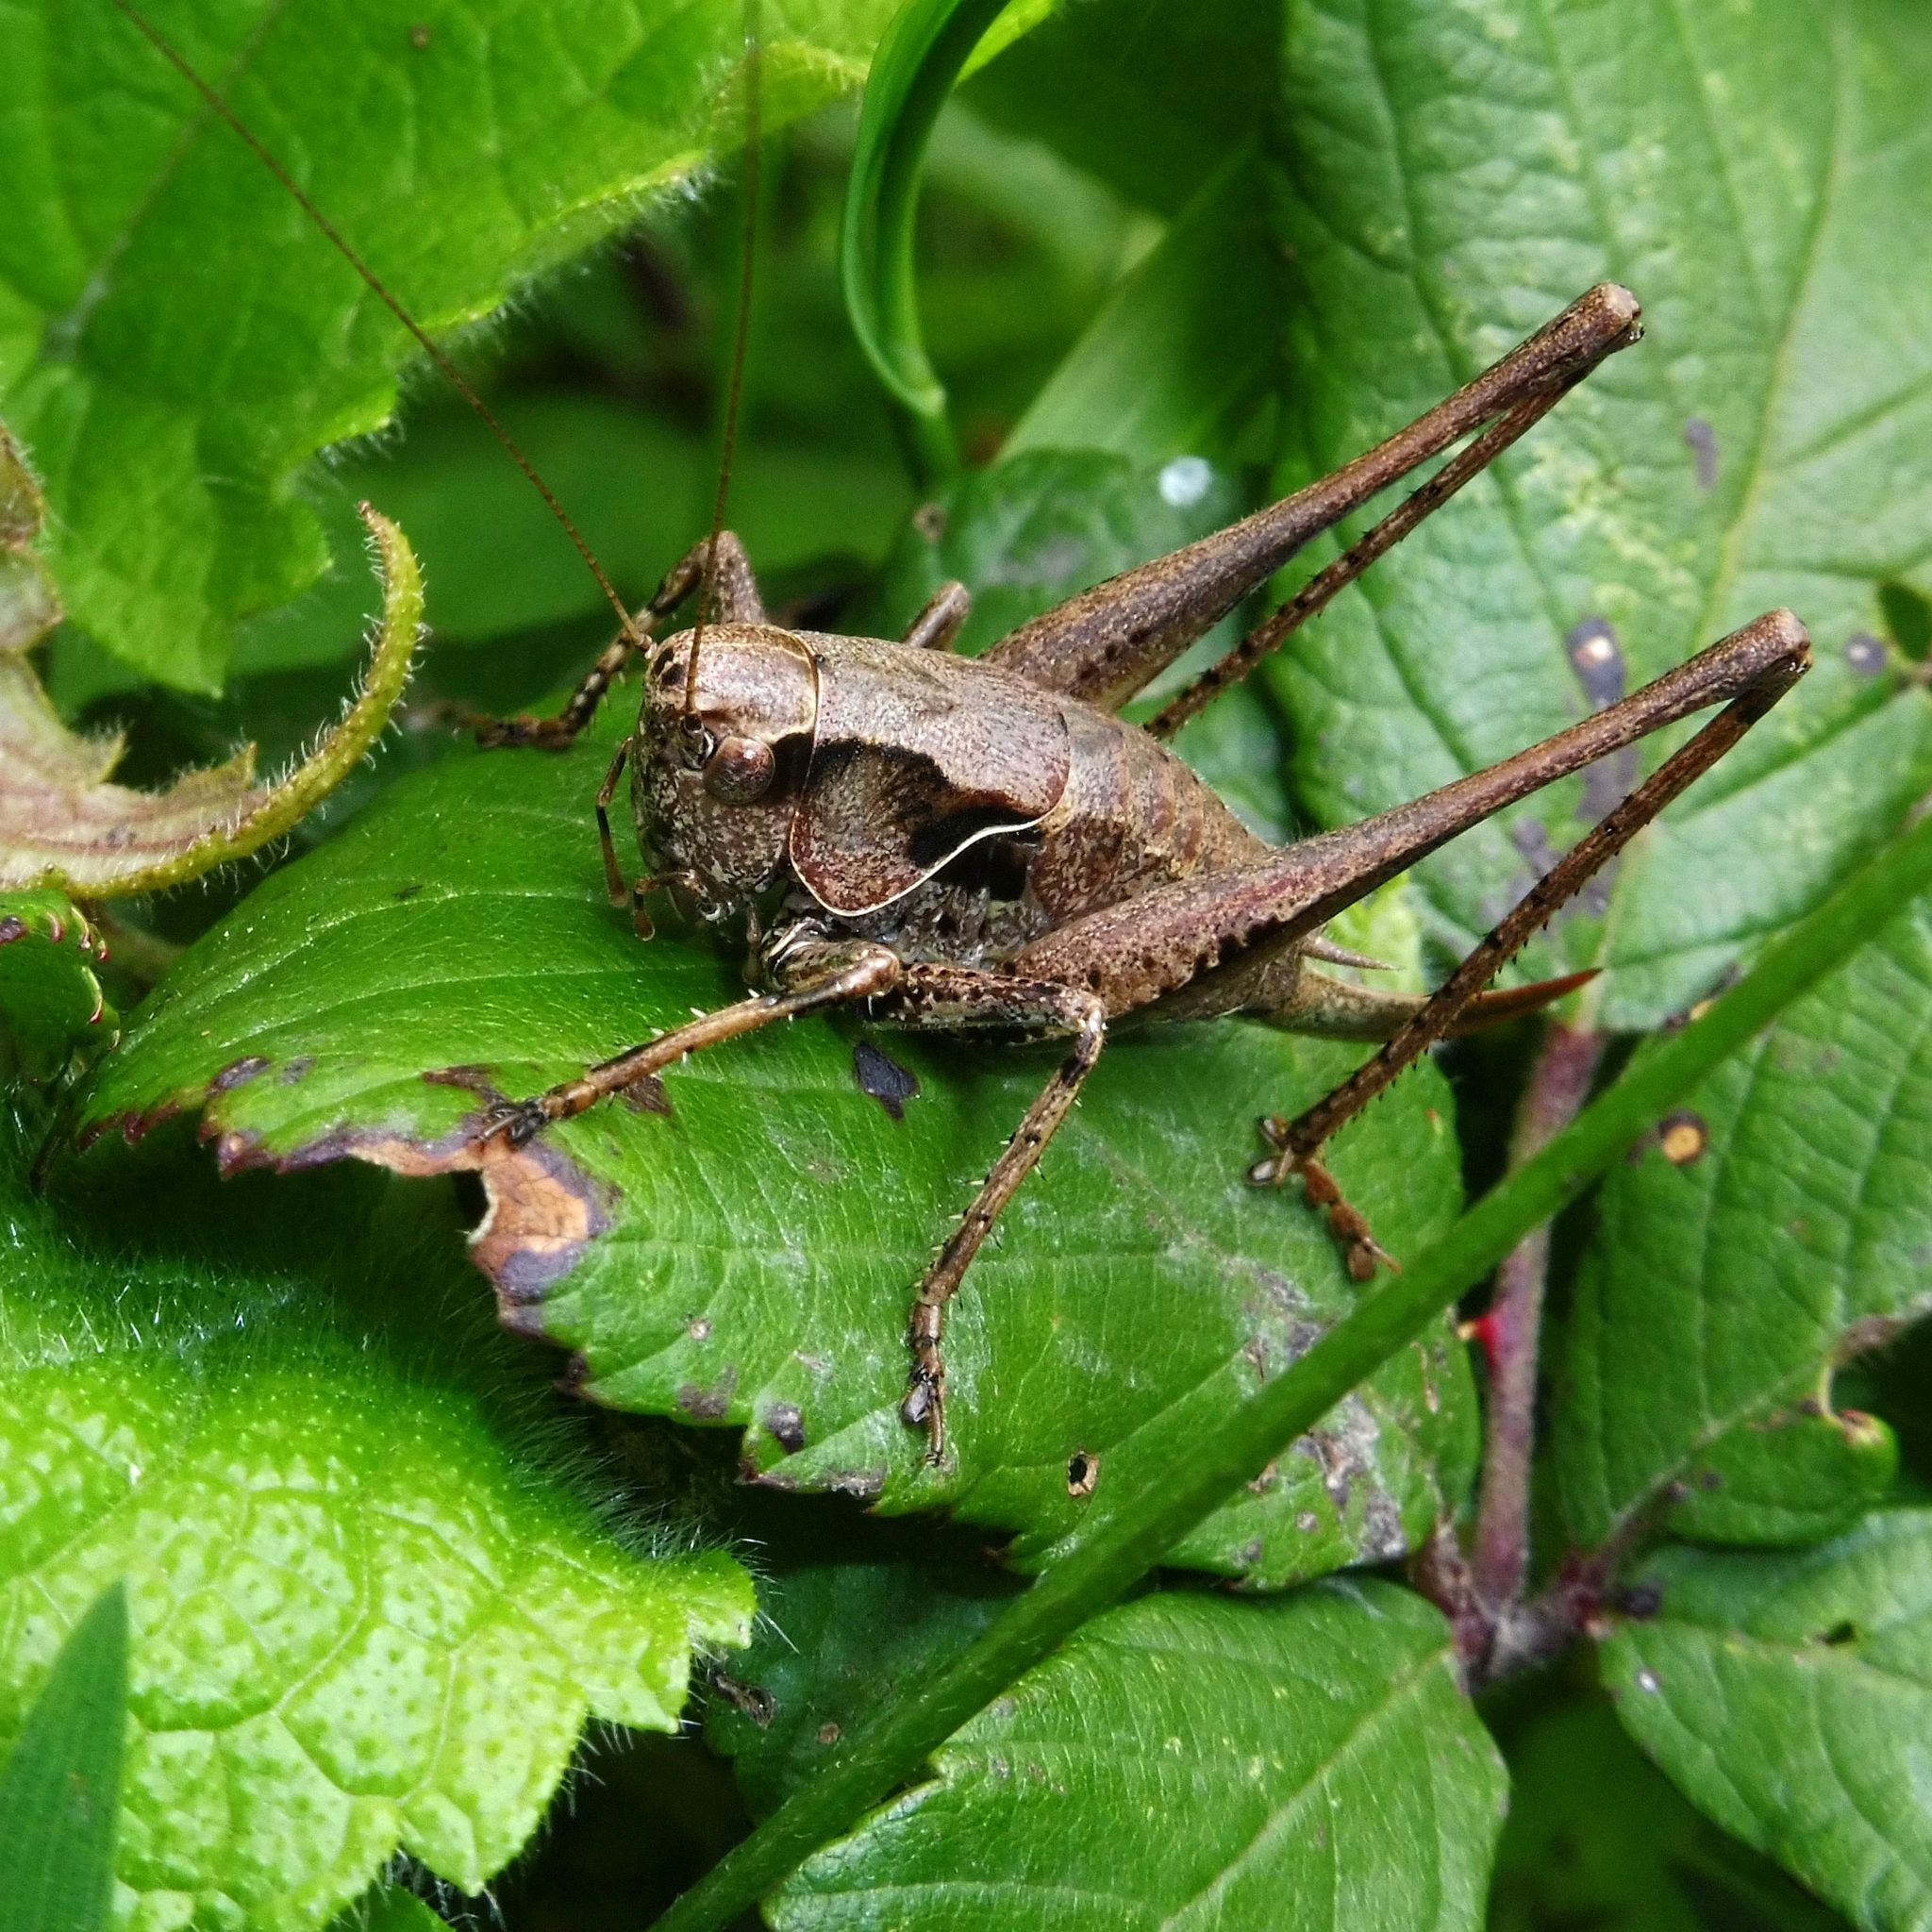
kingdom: Animalia
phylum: Arthropoda
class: Insecta
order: Orthoptera
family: Tettigoniidae
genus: Pholidoptera
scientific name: Pholidoptera griseoaptera
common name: Dark bush-cricket
